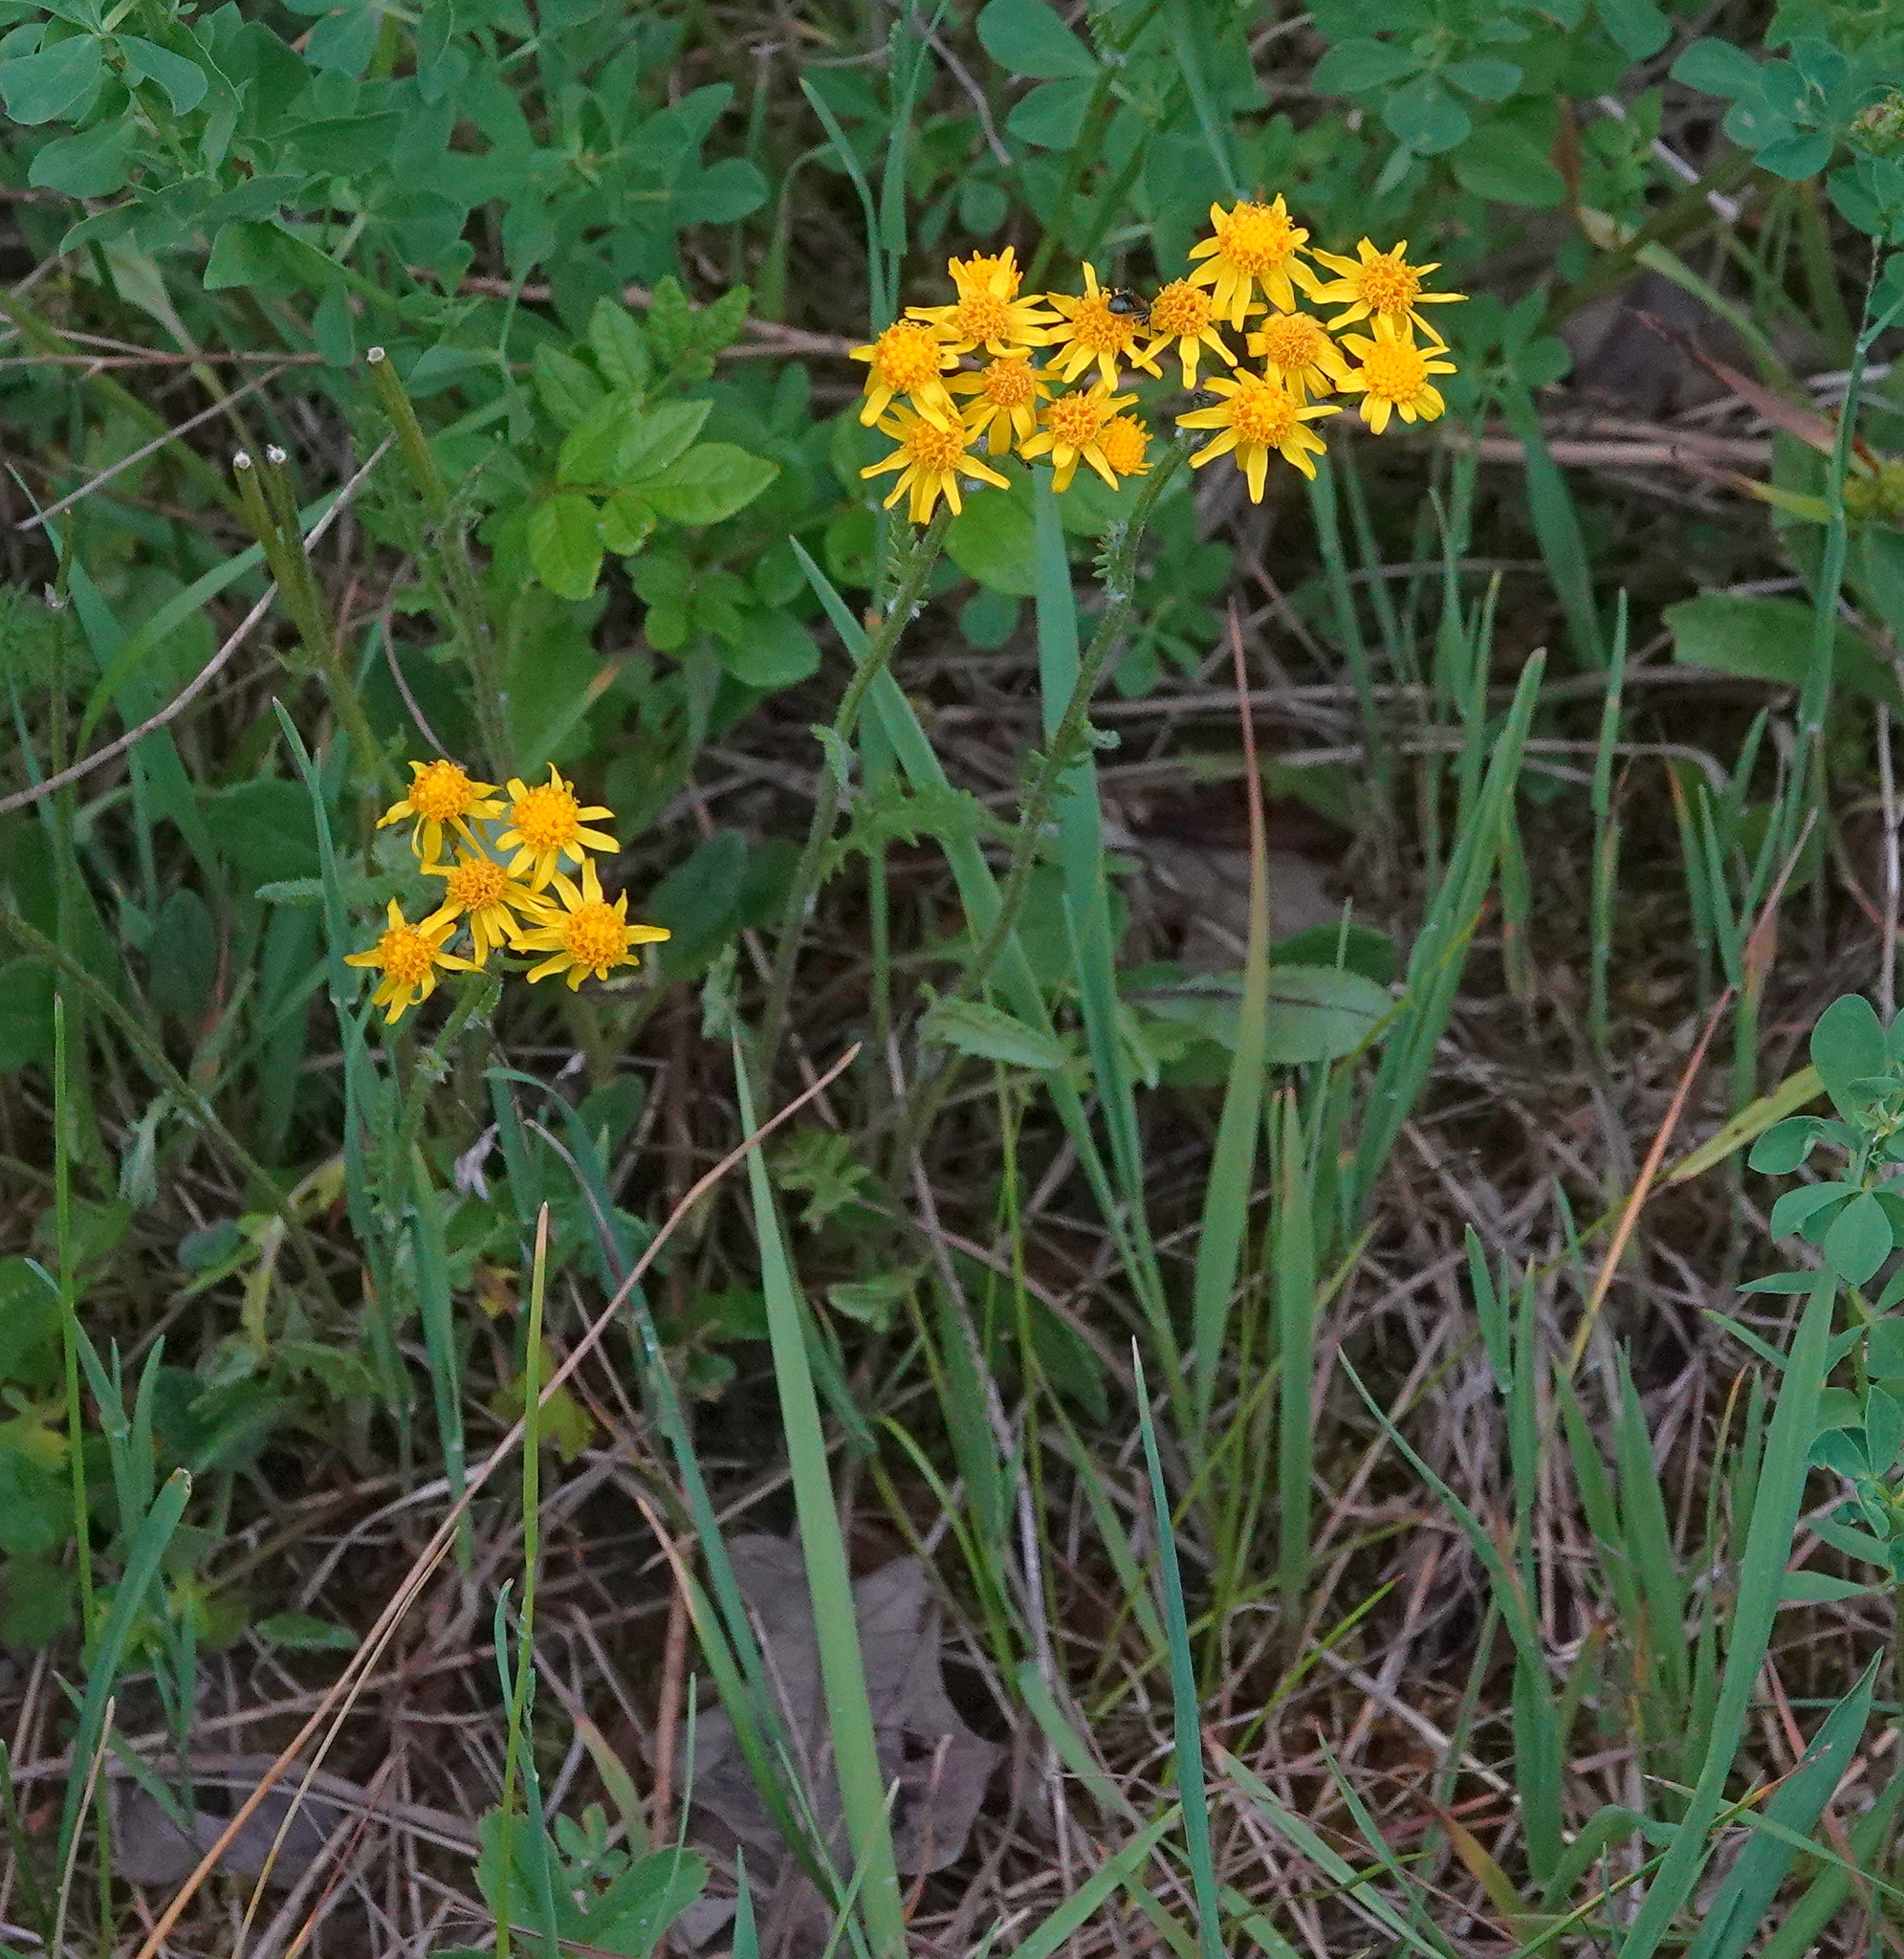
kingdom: Plantae
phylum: Tracheophyta
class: Magnoliopsida
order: Asterales
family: Asteraceae
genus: Packera
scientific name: Packera paupercula
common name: Balsam groundsel
